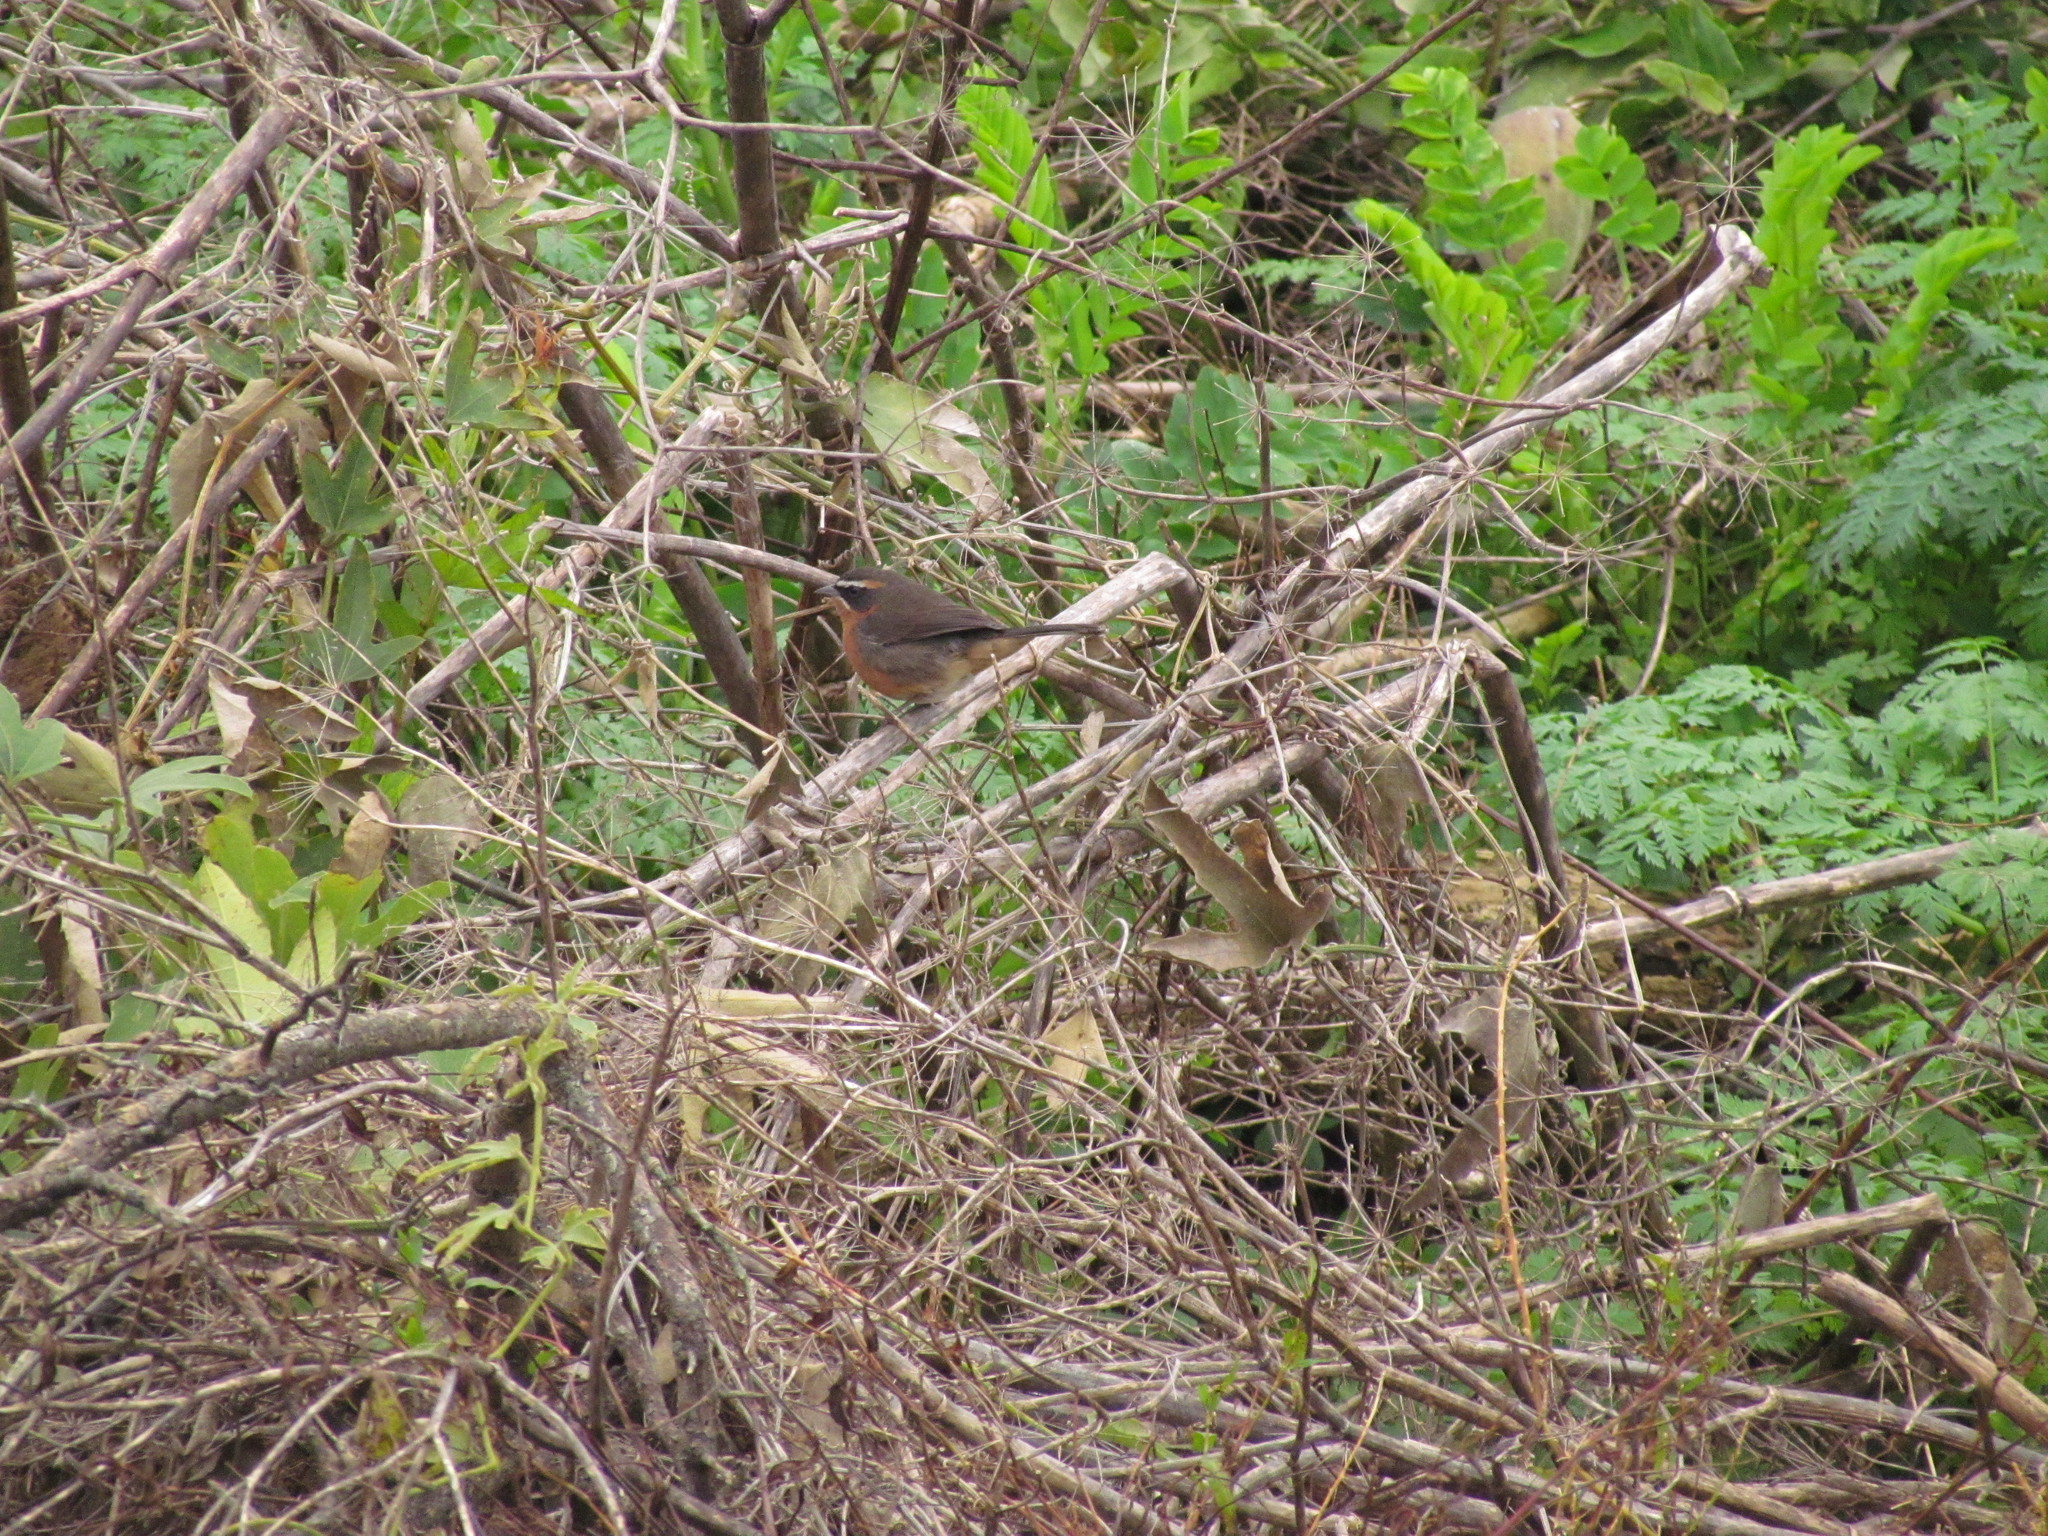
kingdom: Animalia
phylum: Chordata
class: Aves
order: Passeriformes
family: Thraupidae
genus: Poospiza
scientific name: Poospiza nigrorufa
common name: Black-and-rufous warbling finch
